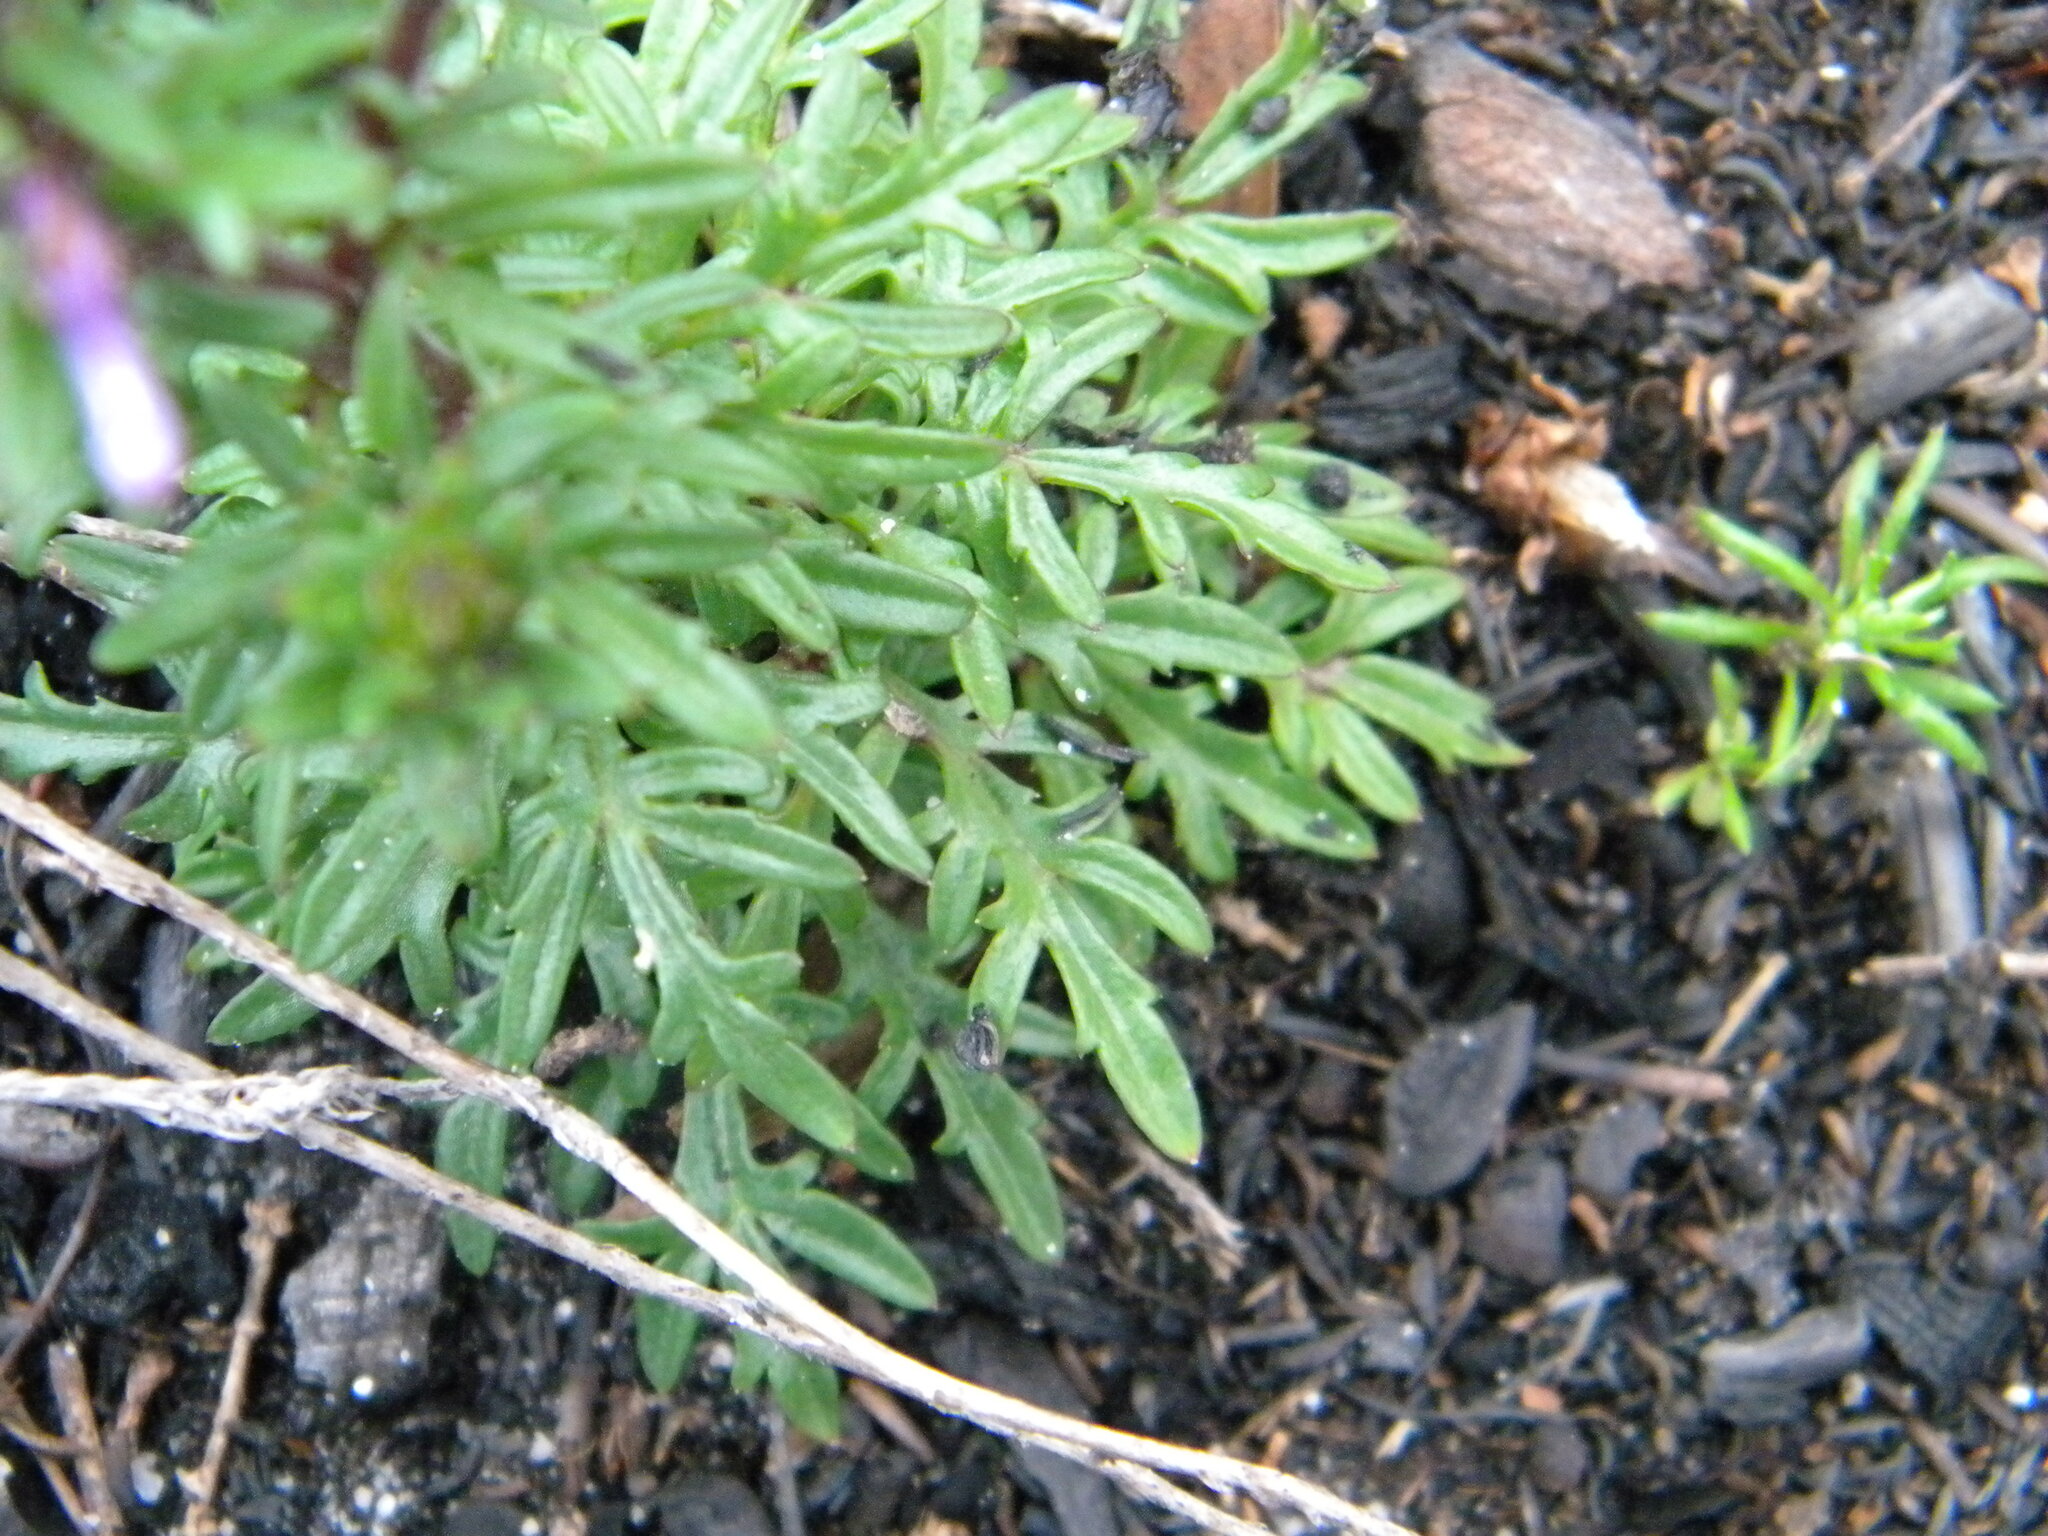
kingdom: Plantae
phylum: Tracheophyta
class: Magnoliopsida
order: Asterales
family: Campanulaceae
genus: Cyphia
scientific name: Cyphia bulbosa
